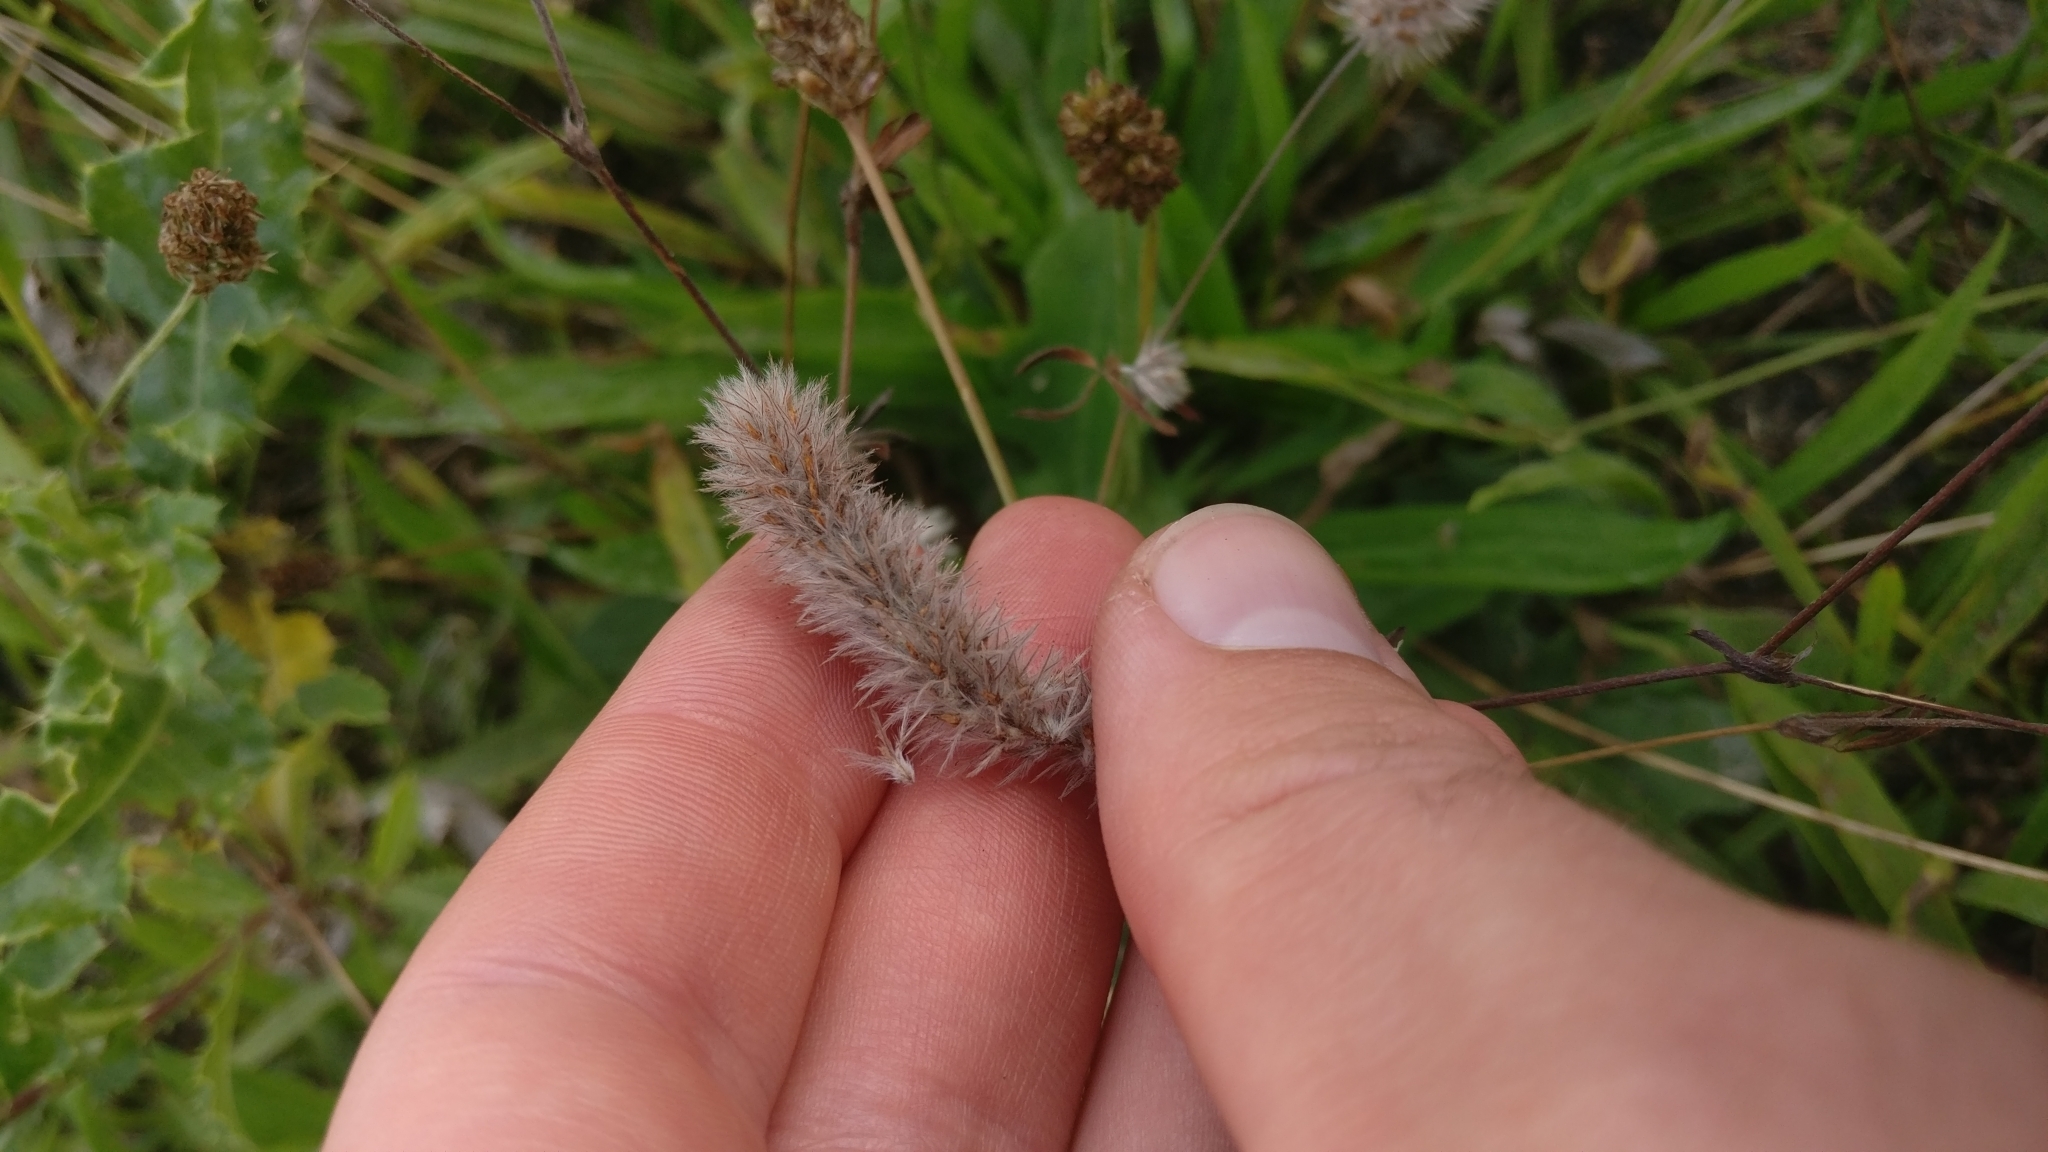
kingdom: Plantae
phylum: Tracheophyta
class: Magnoliopsida
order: Fabales
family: Fabaceae
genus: Trifolium
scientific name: Trifolium arvense
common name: Hare's-foot clover
